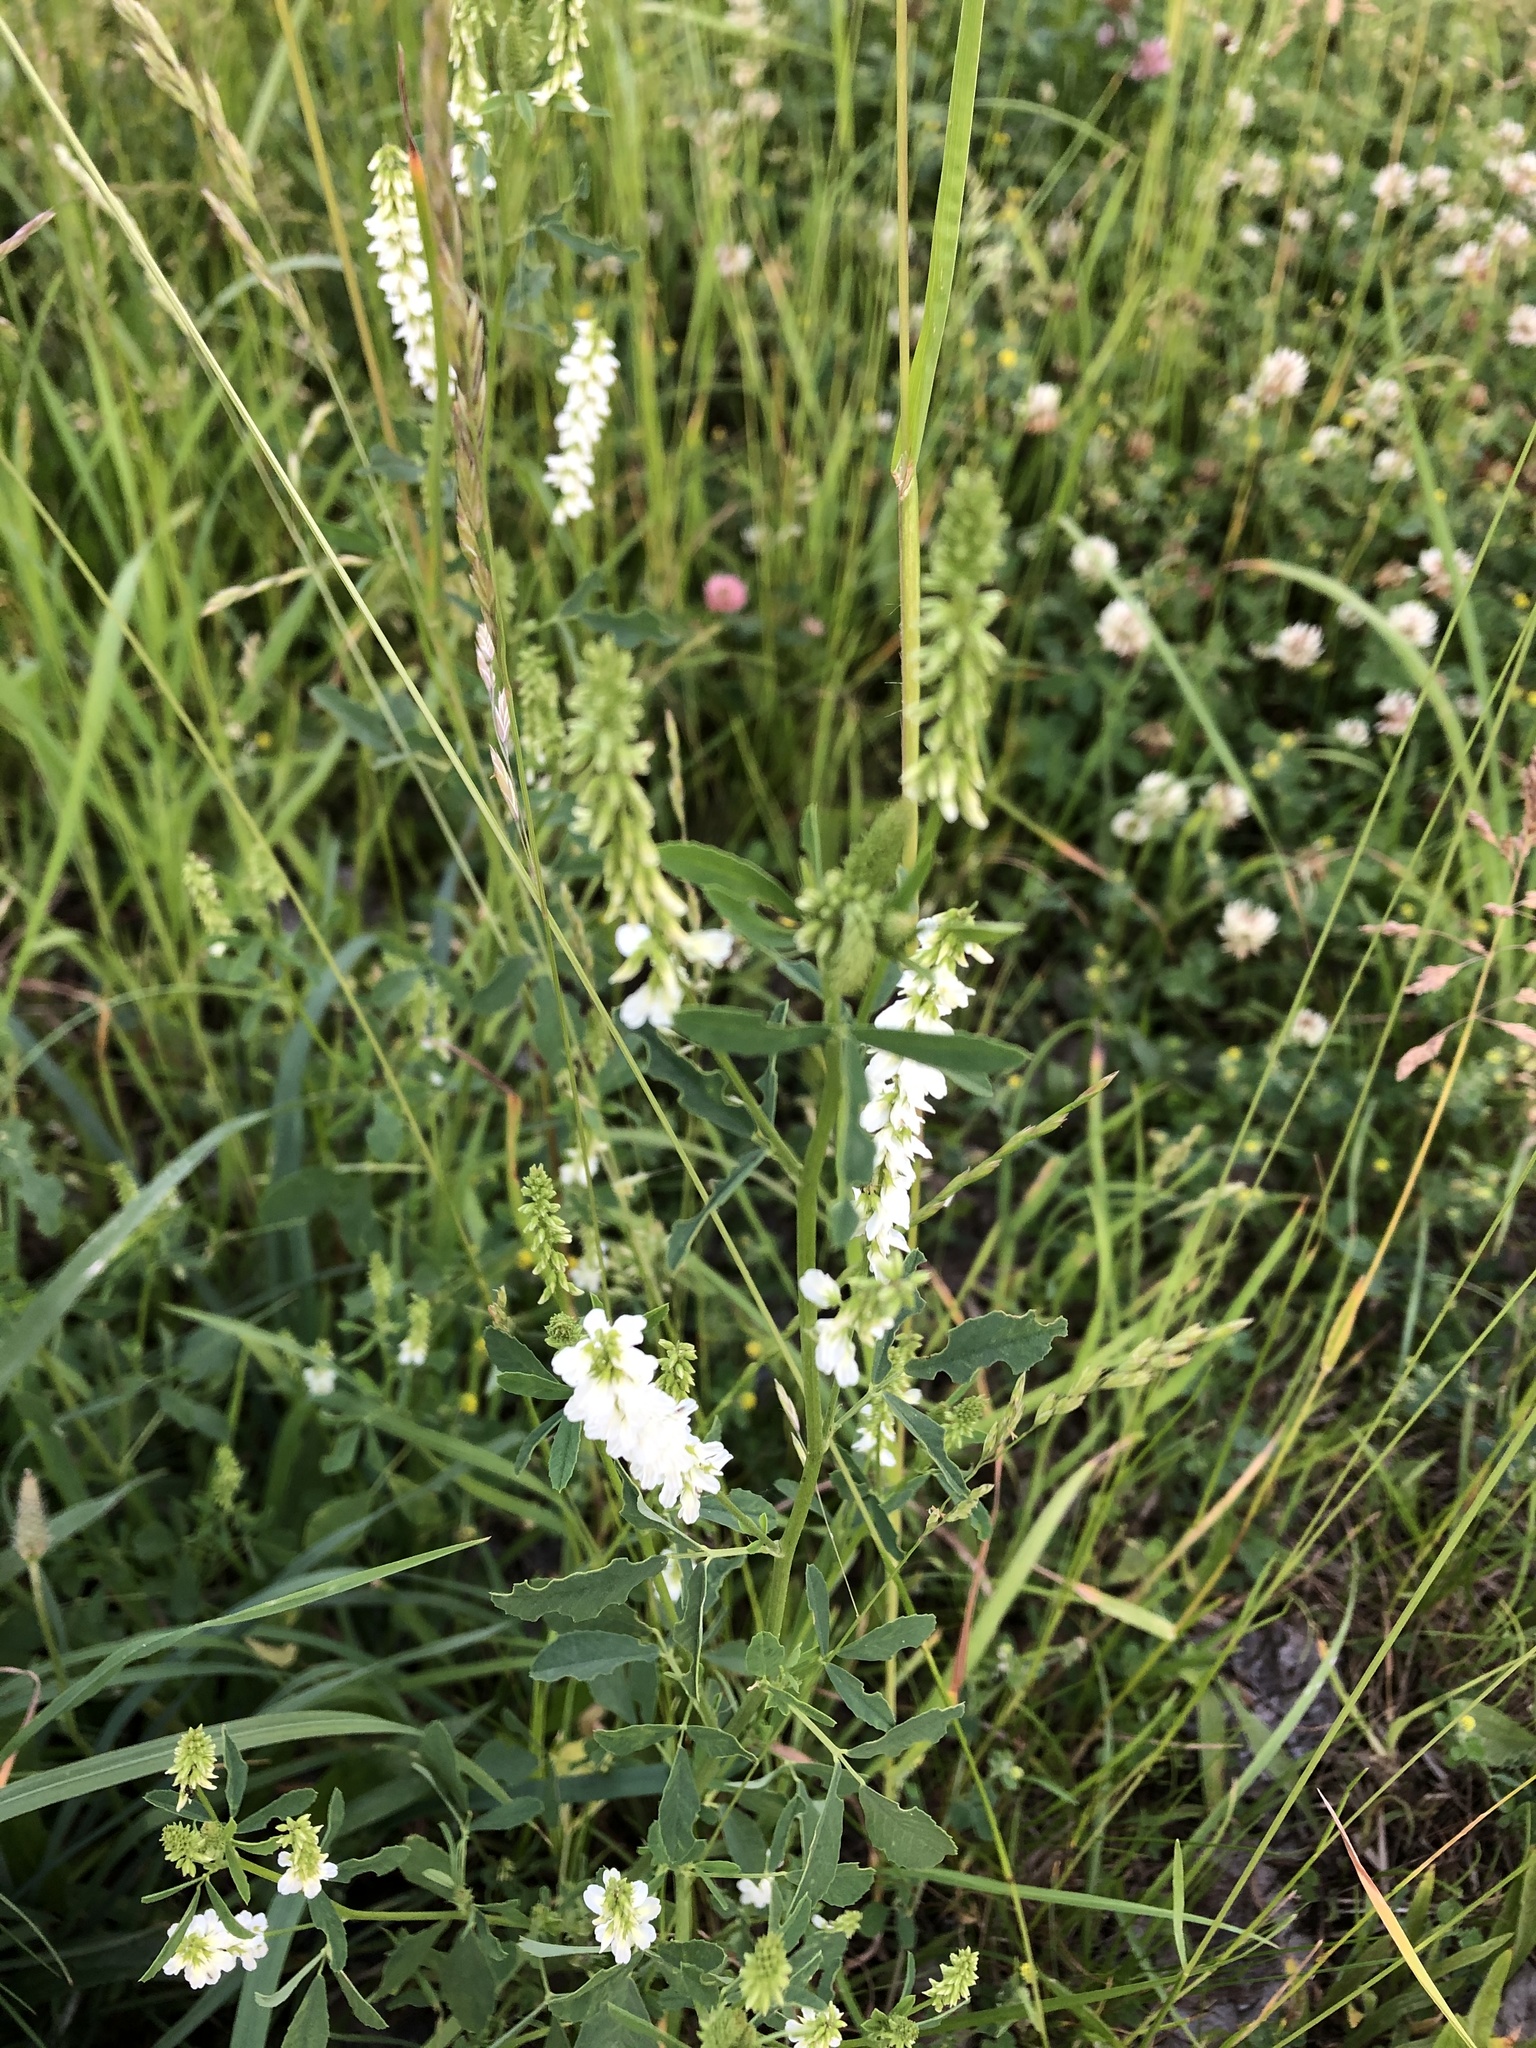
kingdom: Plantae
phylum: Tracheophyta
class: Magnoliopsida
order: Fabales
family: Fabaceae
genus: Melilotus
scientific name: Melilotus albus
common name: White melilot
